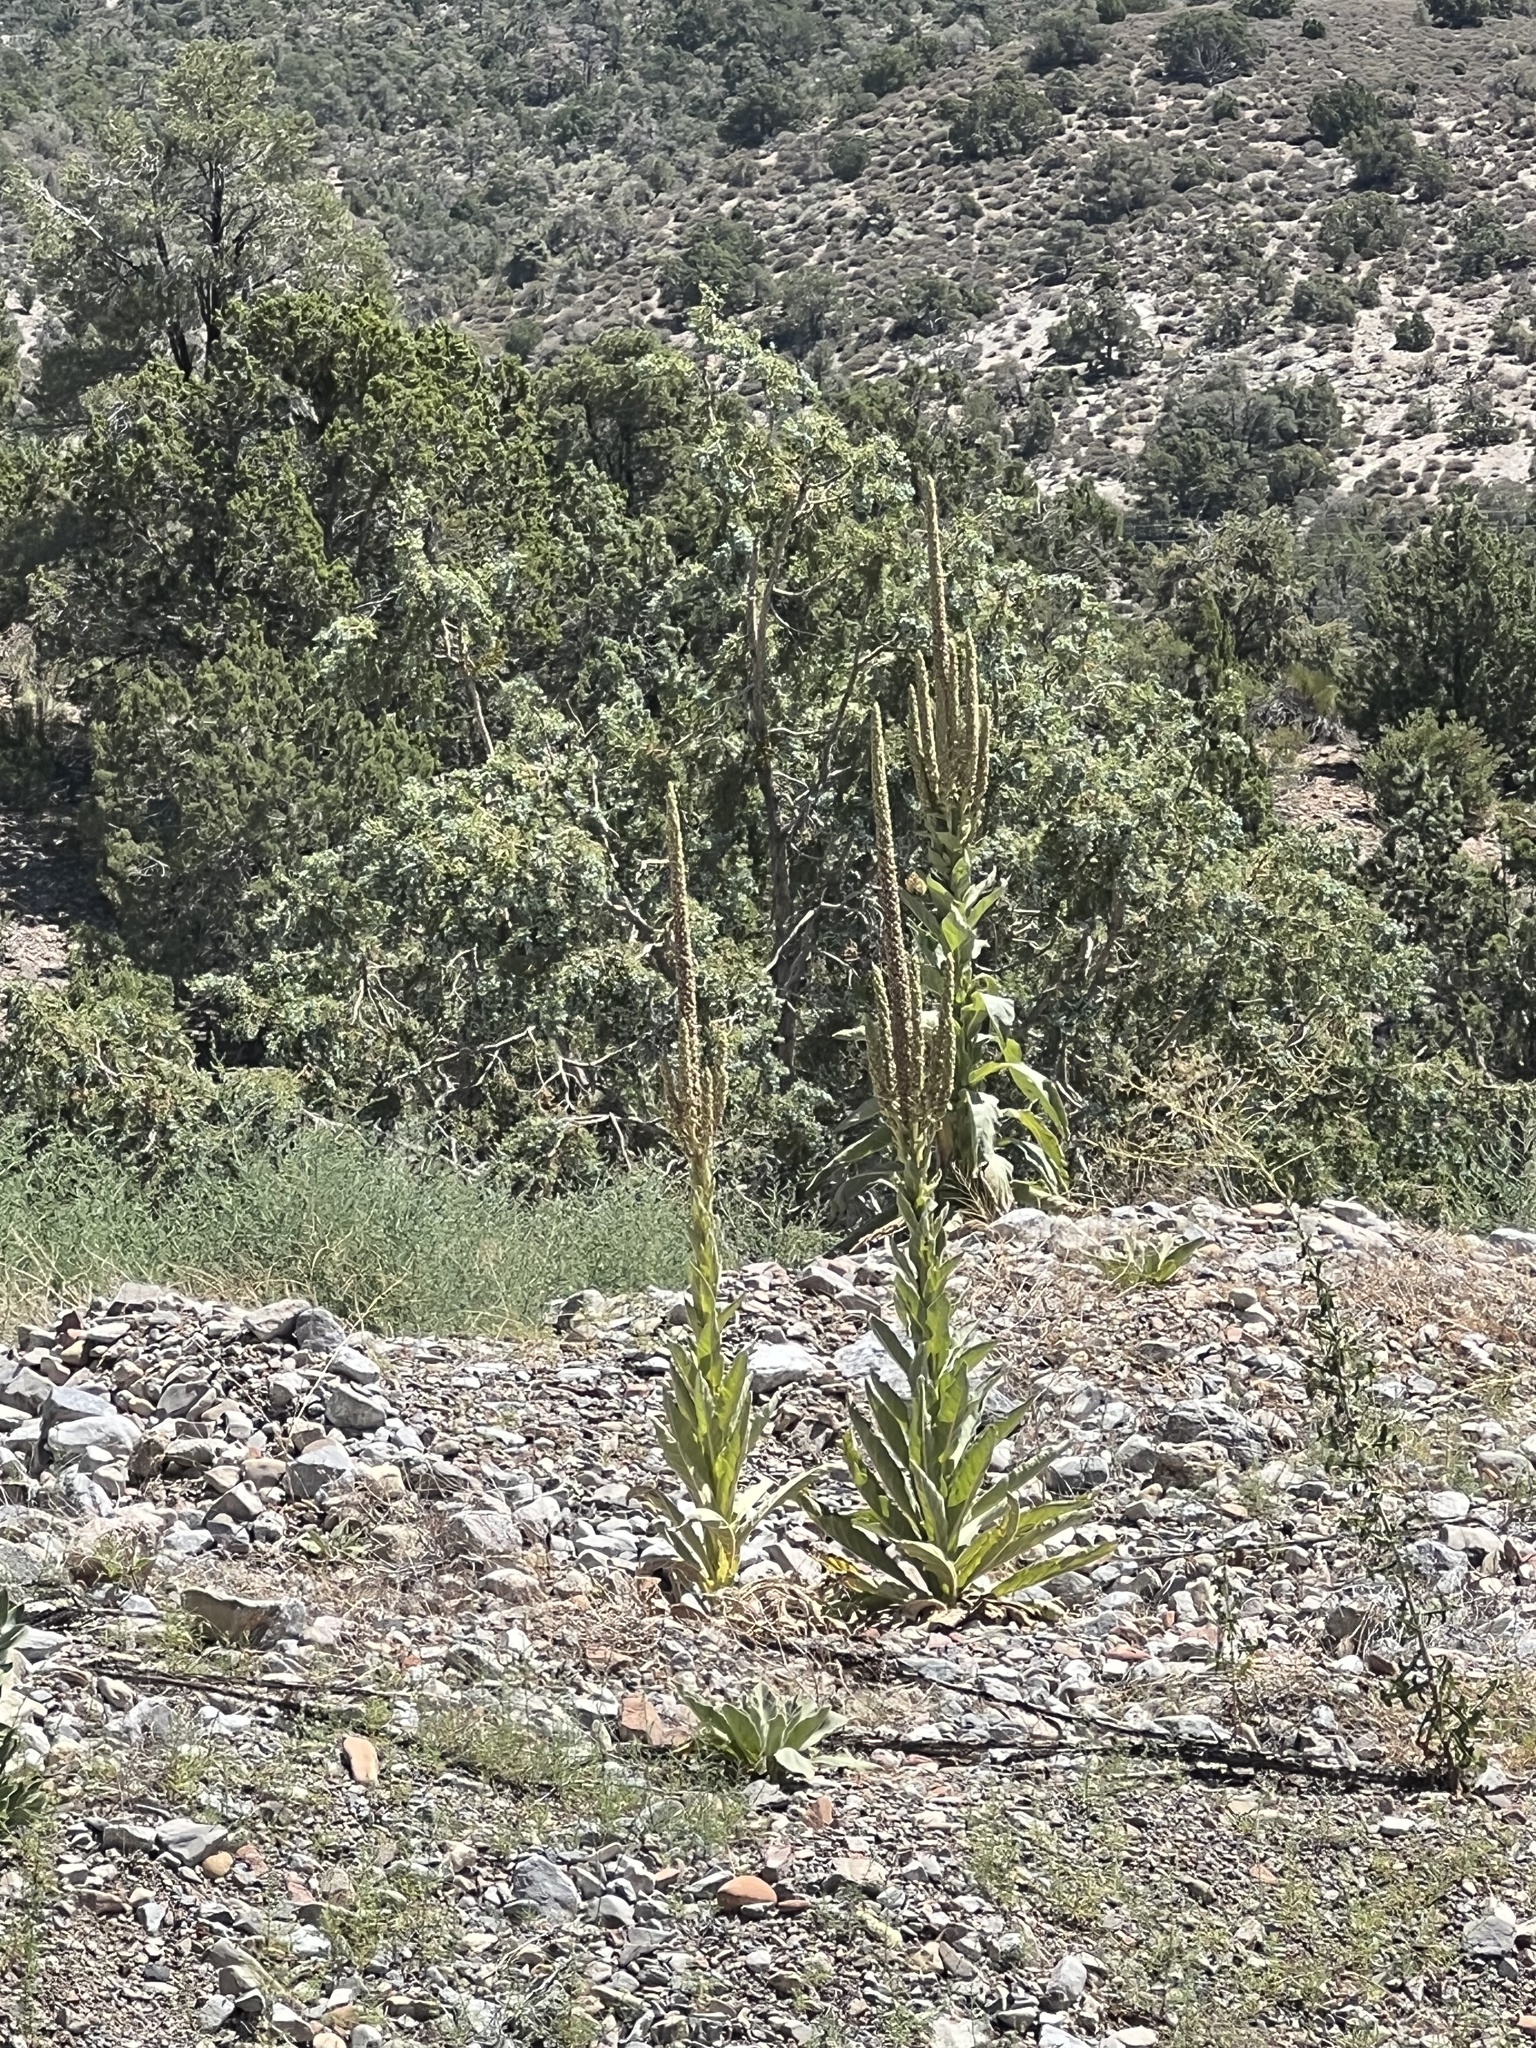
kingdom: Plantae
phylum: Tracheophyta
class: Magnoliopsida
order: Lamiales
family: Scrophulariaceae
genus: Verbascum
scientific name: Verbascum thapsus
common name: Common mullein
